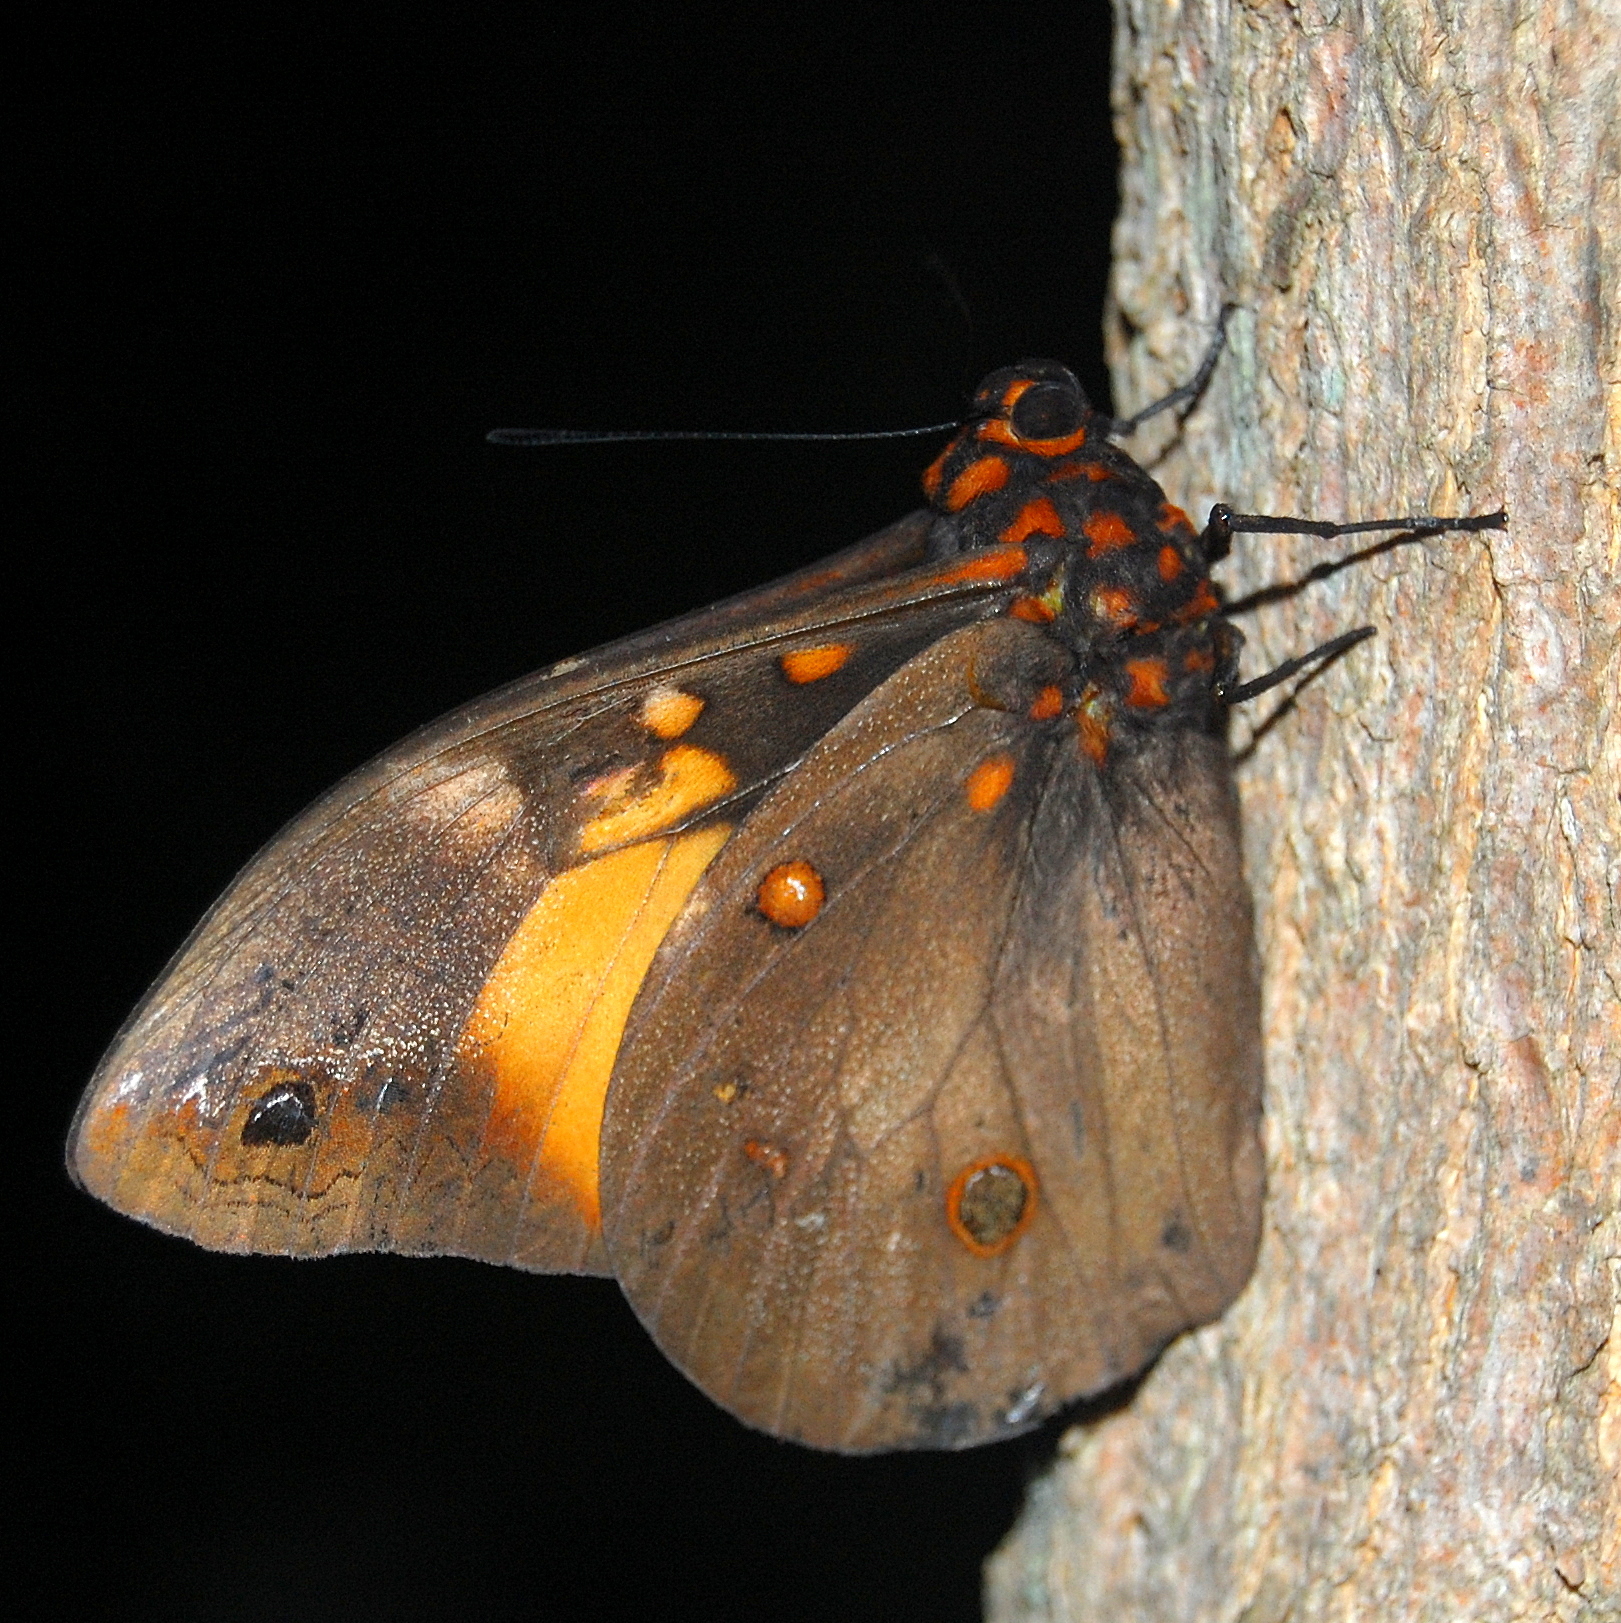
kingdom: Animalia
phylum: Arthropoda
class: Insecta
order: Lepidoptera
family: Nymphalidae
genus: Brassolis
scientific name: Brassolis astyra
